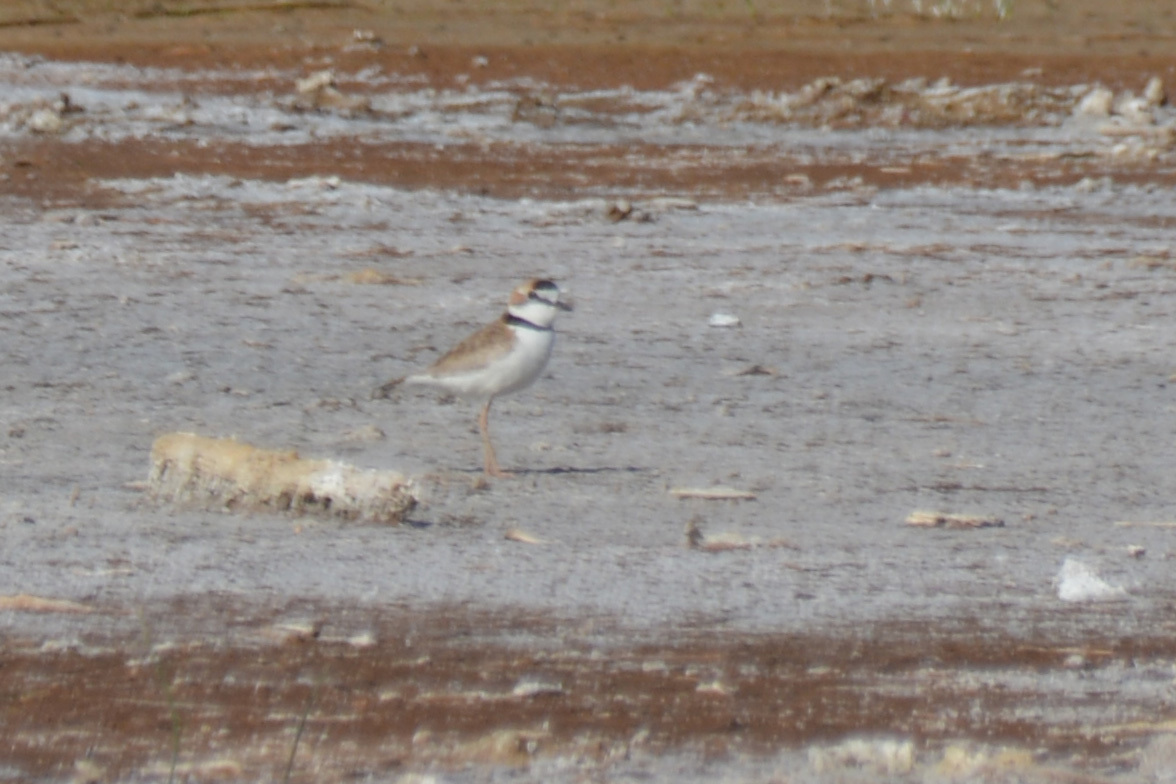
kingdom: Animalia
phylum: Chordata
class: Aves
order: Charadriiformes
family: Charadriidae
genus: Anarhynchus
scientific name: Anarhynchus
